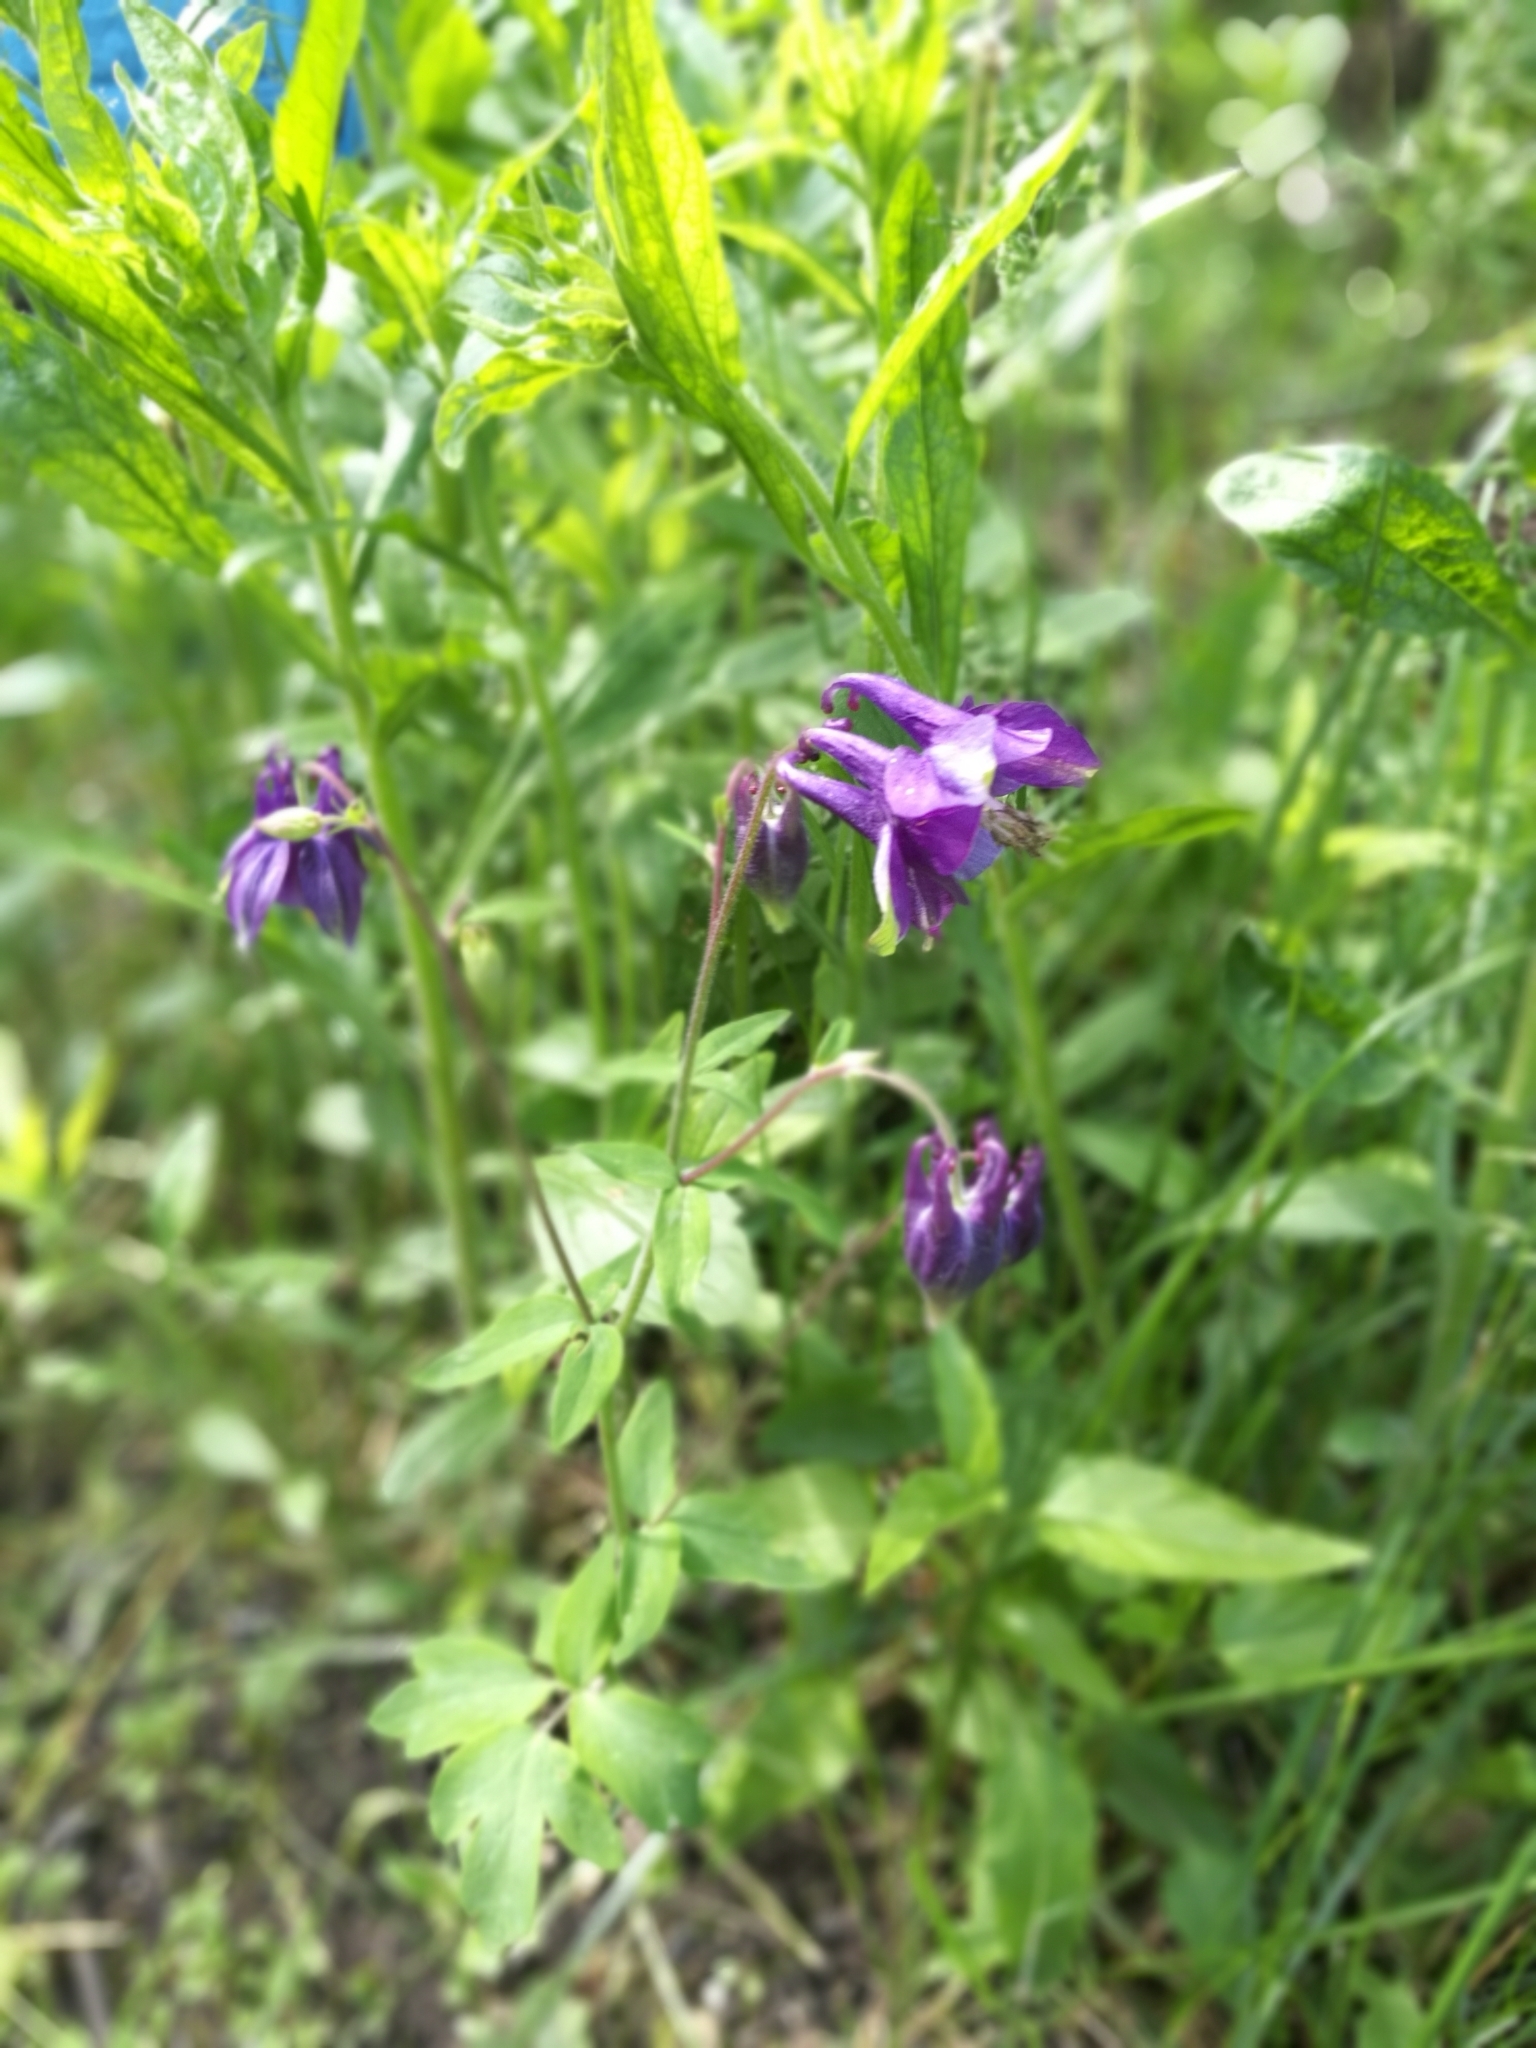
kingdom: Plantae
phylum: Tracheophyta
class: Magnoliopsida
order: Ranunculales
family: Ranunculaceae
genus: Aquilegia
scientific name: Aquilegia vulgaris
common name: Columbine
